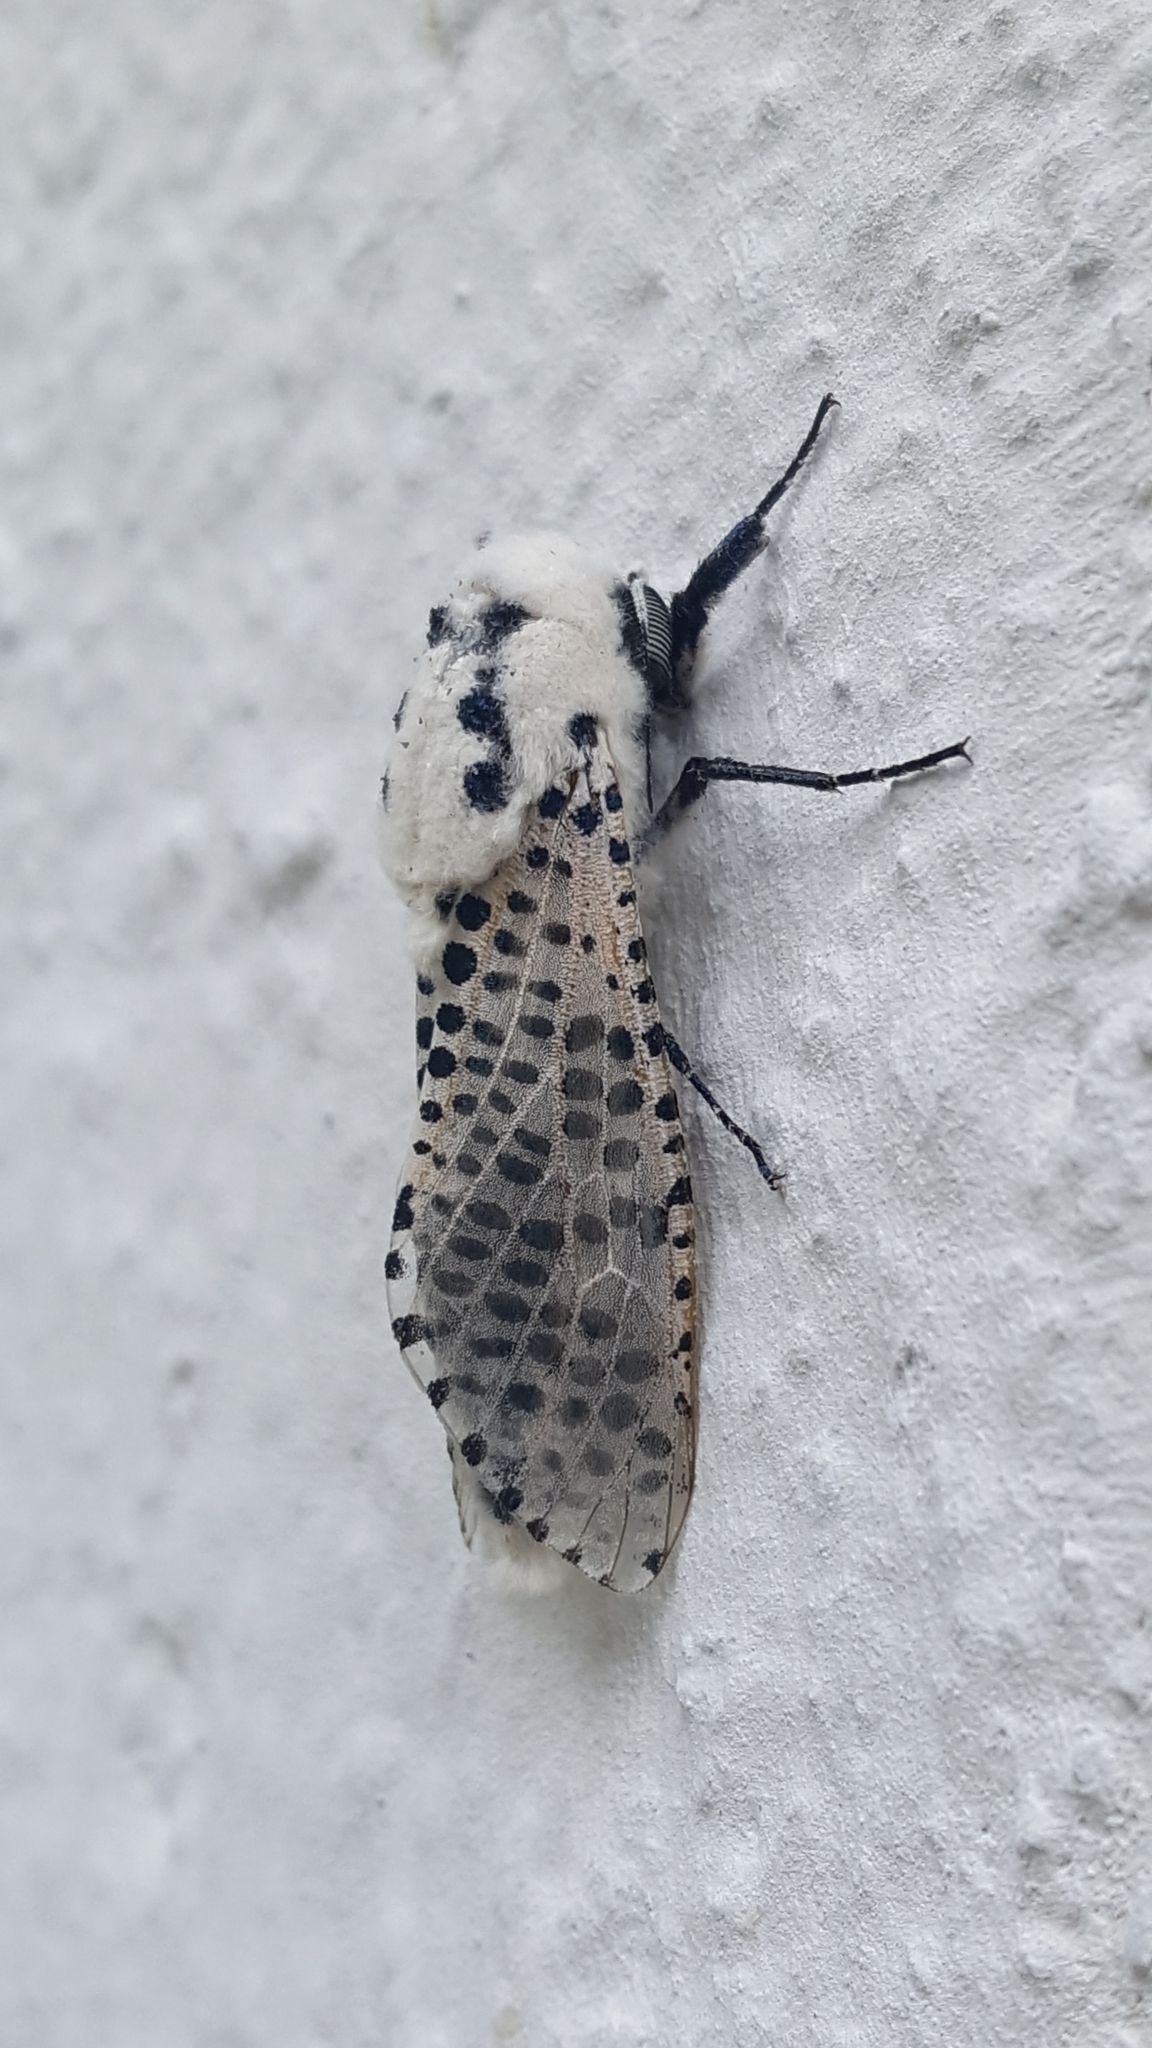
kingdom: Animalia
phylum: Arthropoda
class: Insecta
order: Lepidoptera
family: Cossidae
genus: Zeuzera
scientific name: Zeuzera pyrina
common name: Leopard moth
